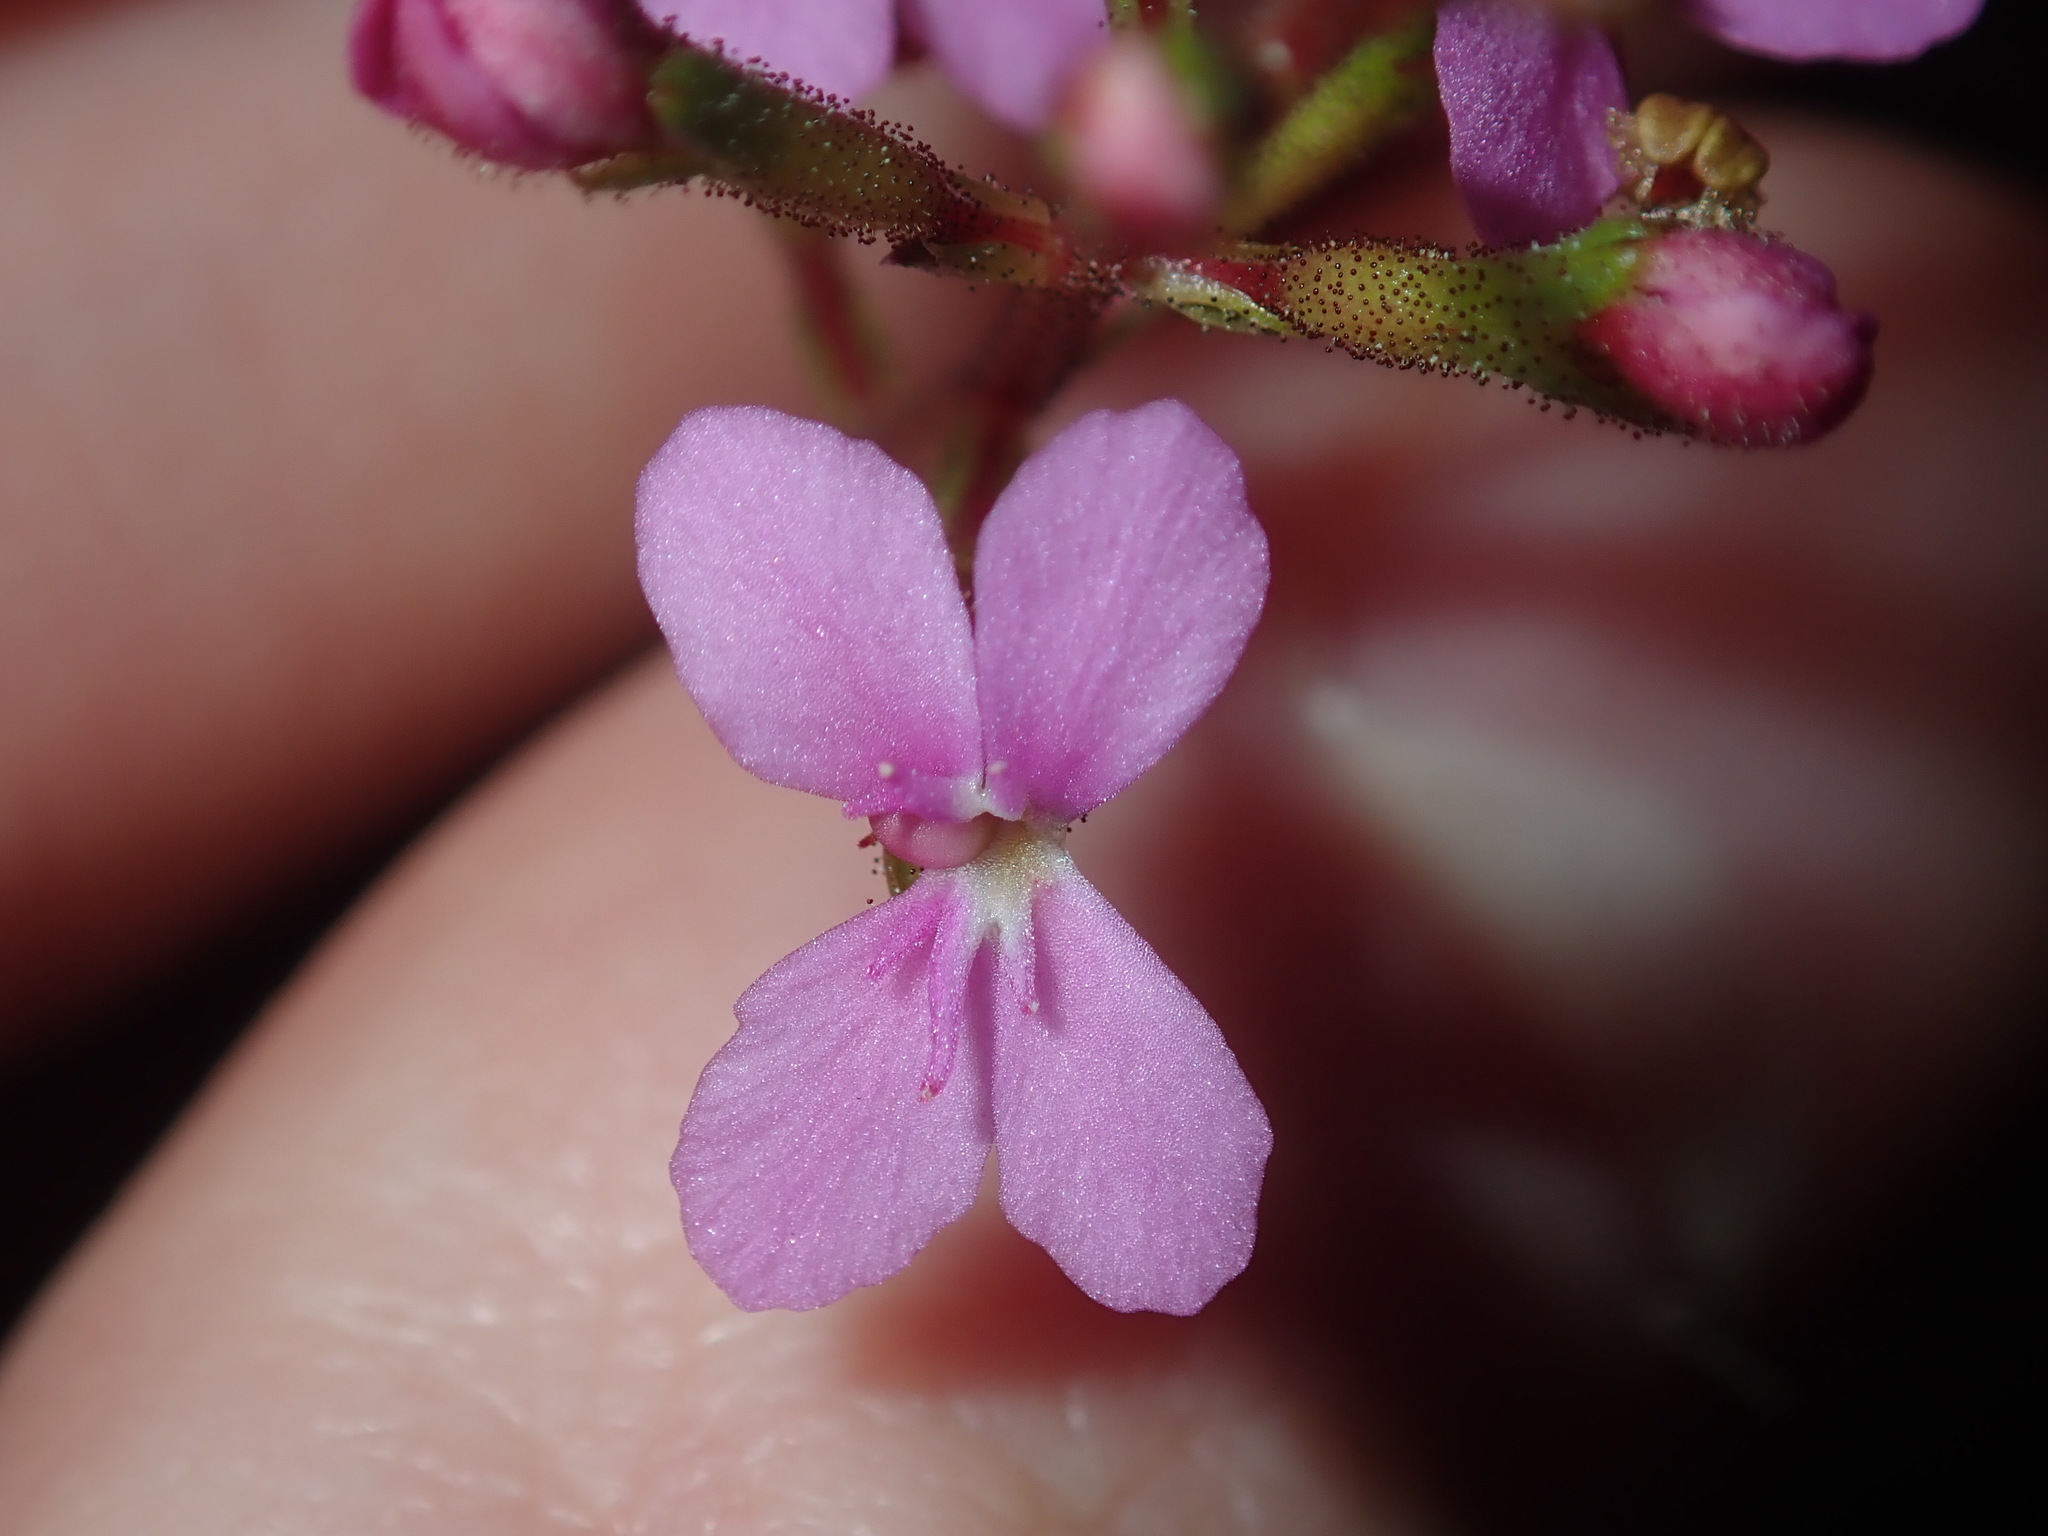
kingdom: Plantae
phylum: Tracheophyta
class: Magnoliopsida
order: Asterales
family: Stylidiaceae
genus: Stylidium
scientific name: Stylidium lineare
